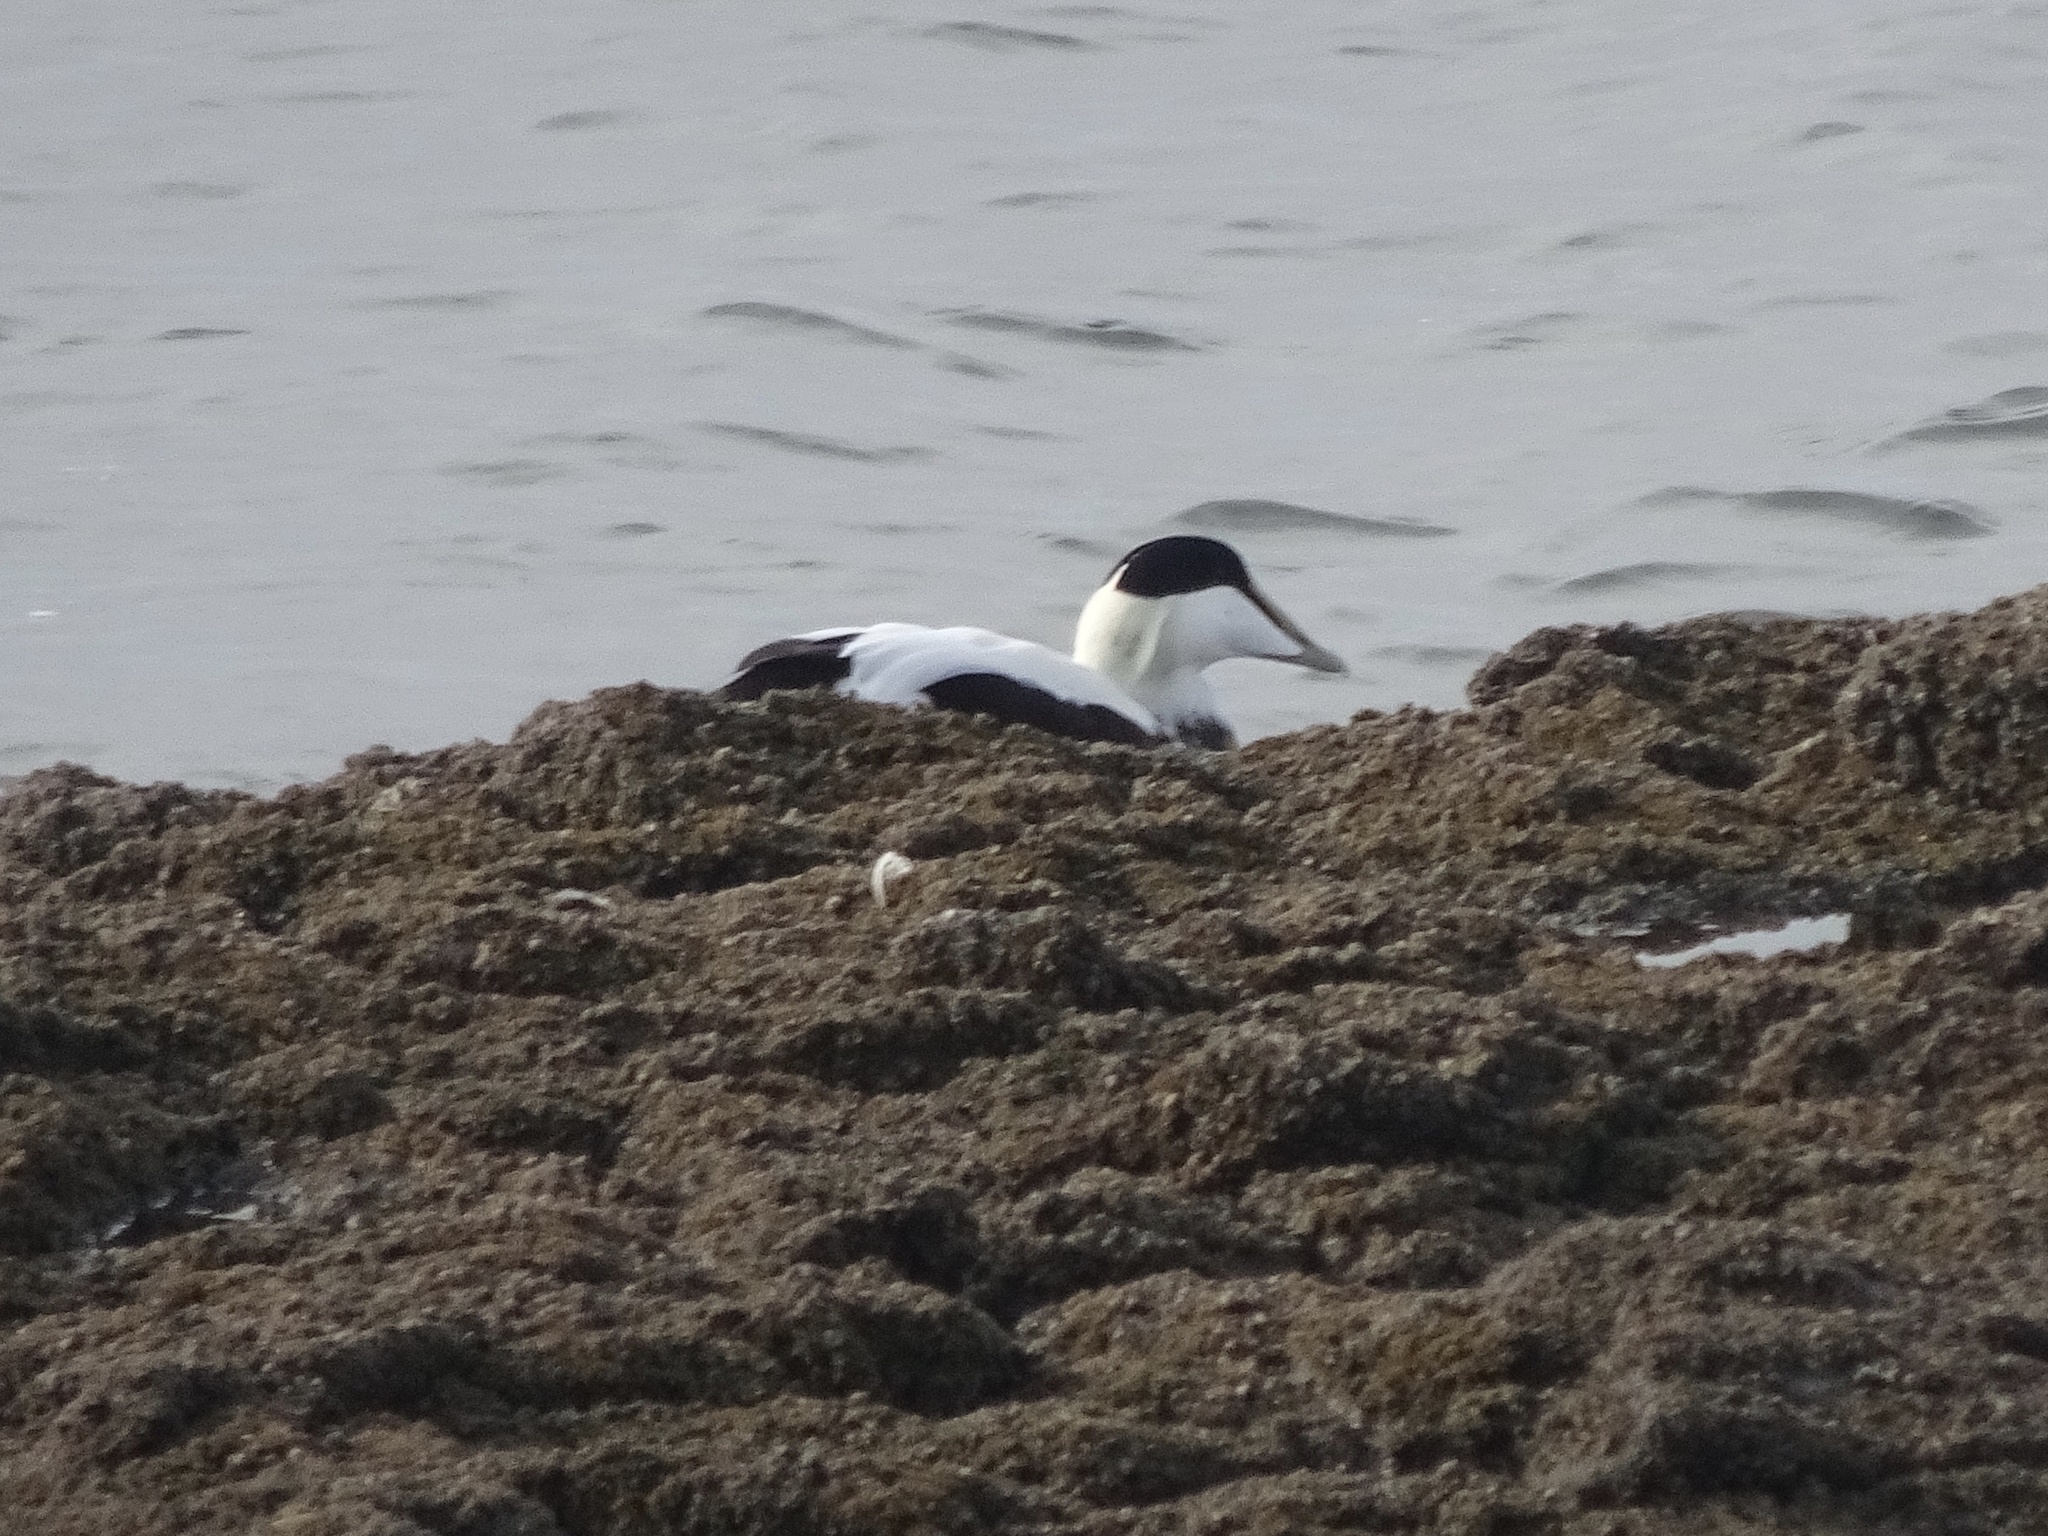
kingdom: Animalia
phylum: Chordata
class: Aves
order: Anseriformes
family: Anatidae
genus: Somateria
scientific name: Somateria mollissima
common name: Common eider
